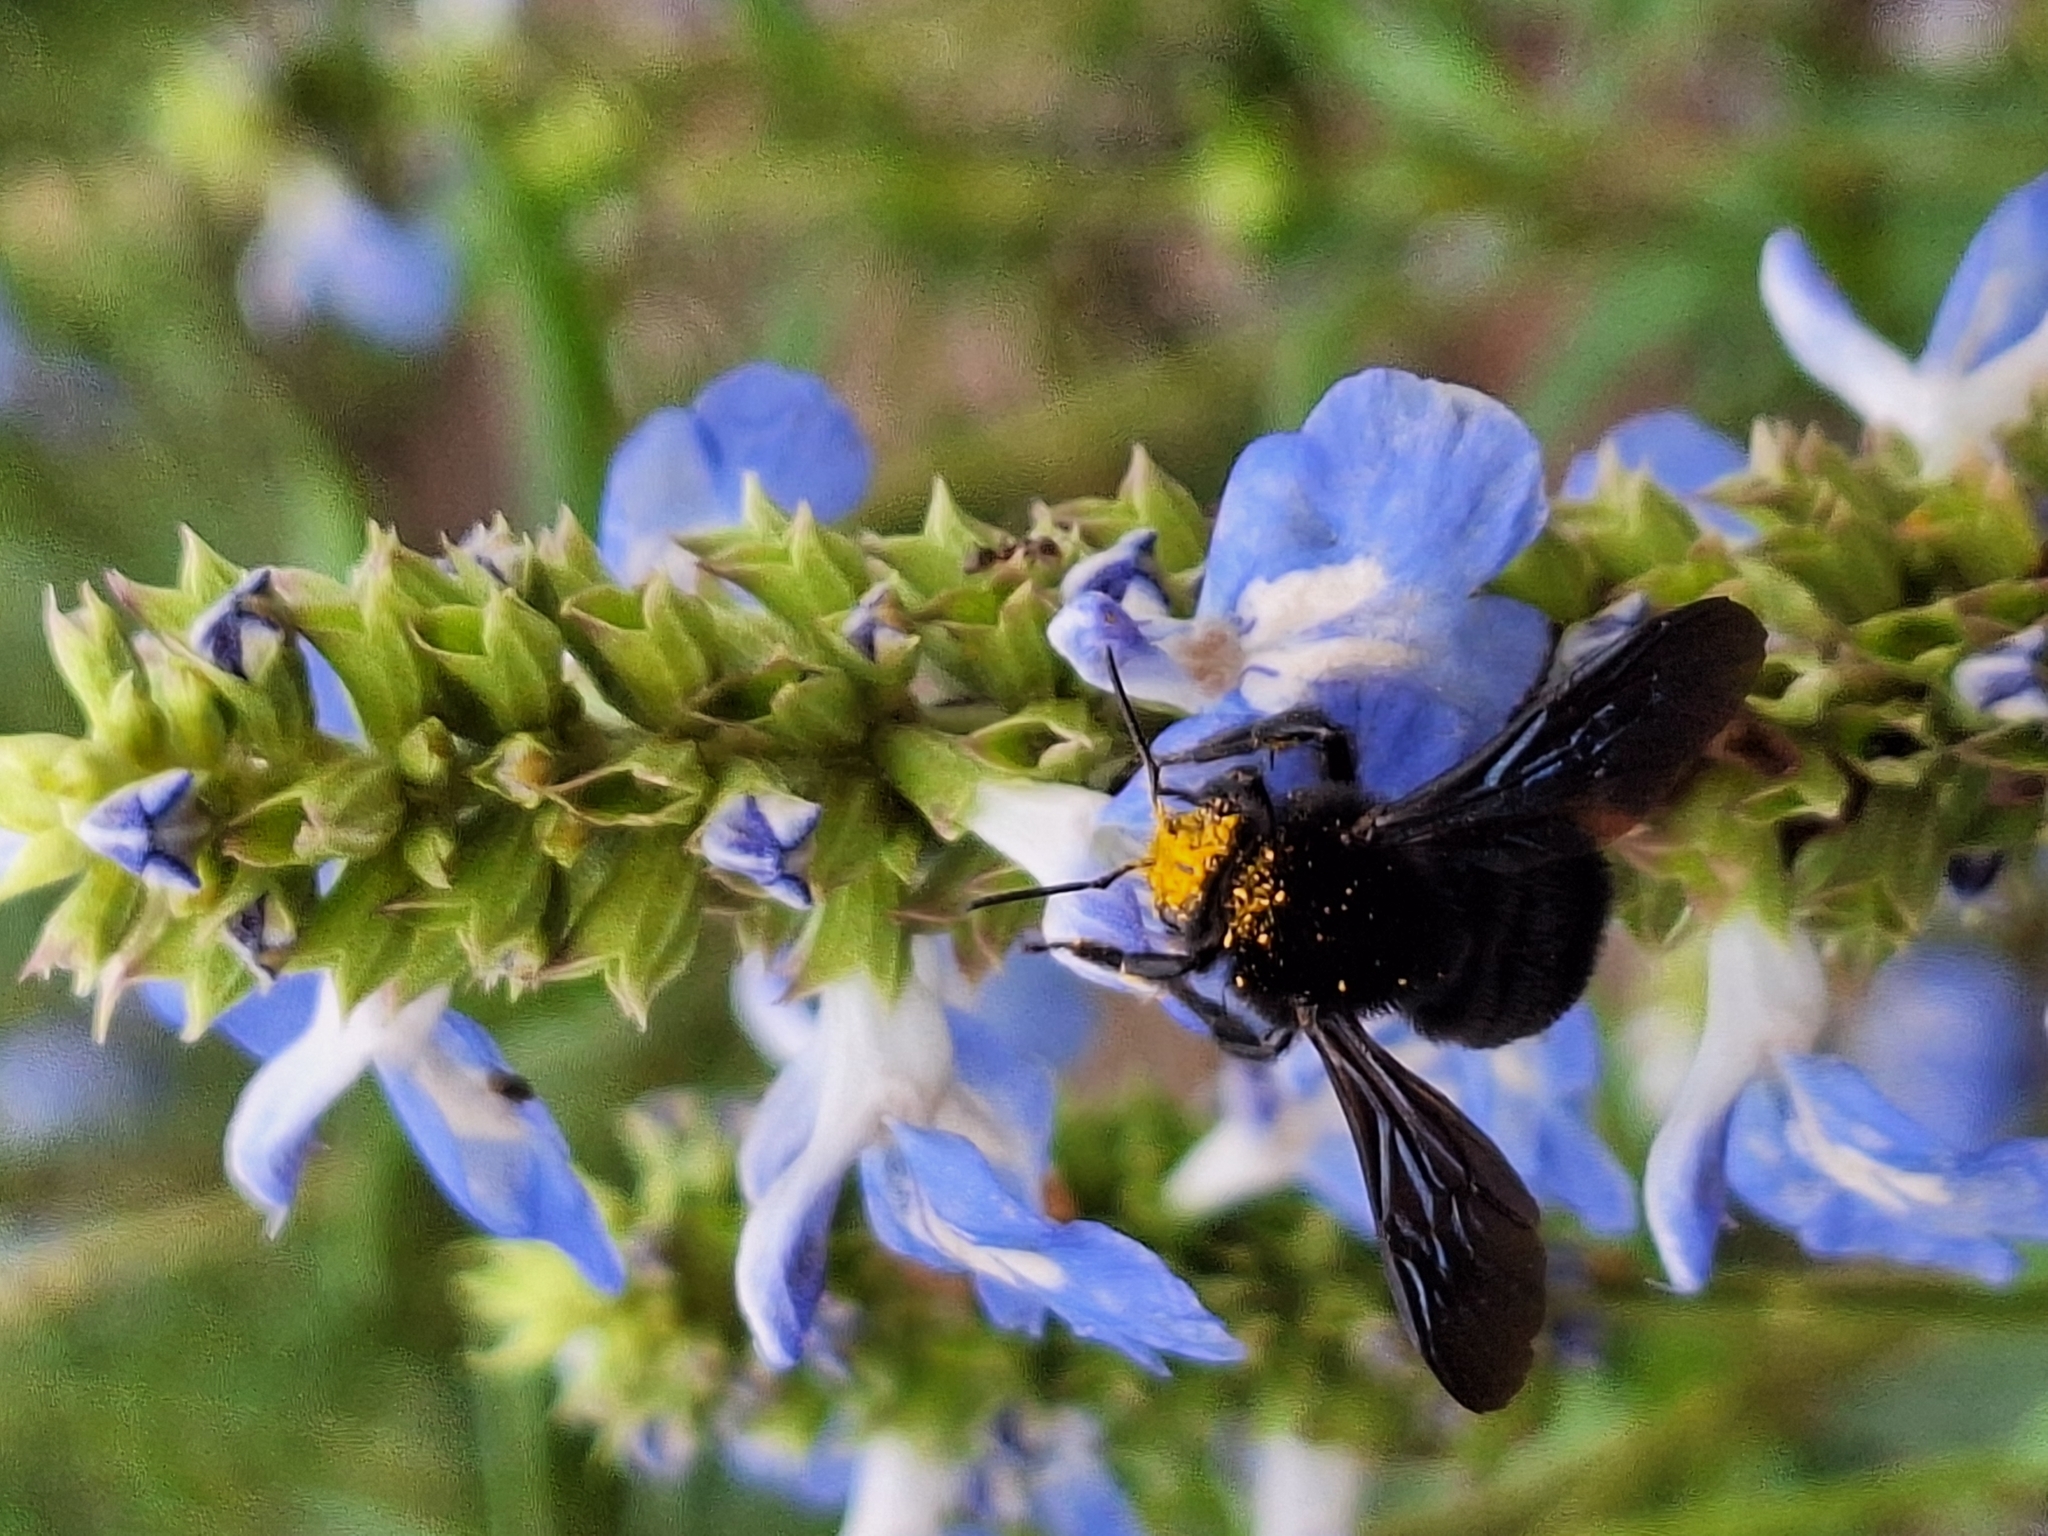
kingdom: Animalia
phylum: Arthropoda
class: Insecta
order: Hymenoptera
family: Apidae
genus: Bombus
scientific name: Bombus pauloensis
